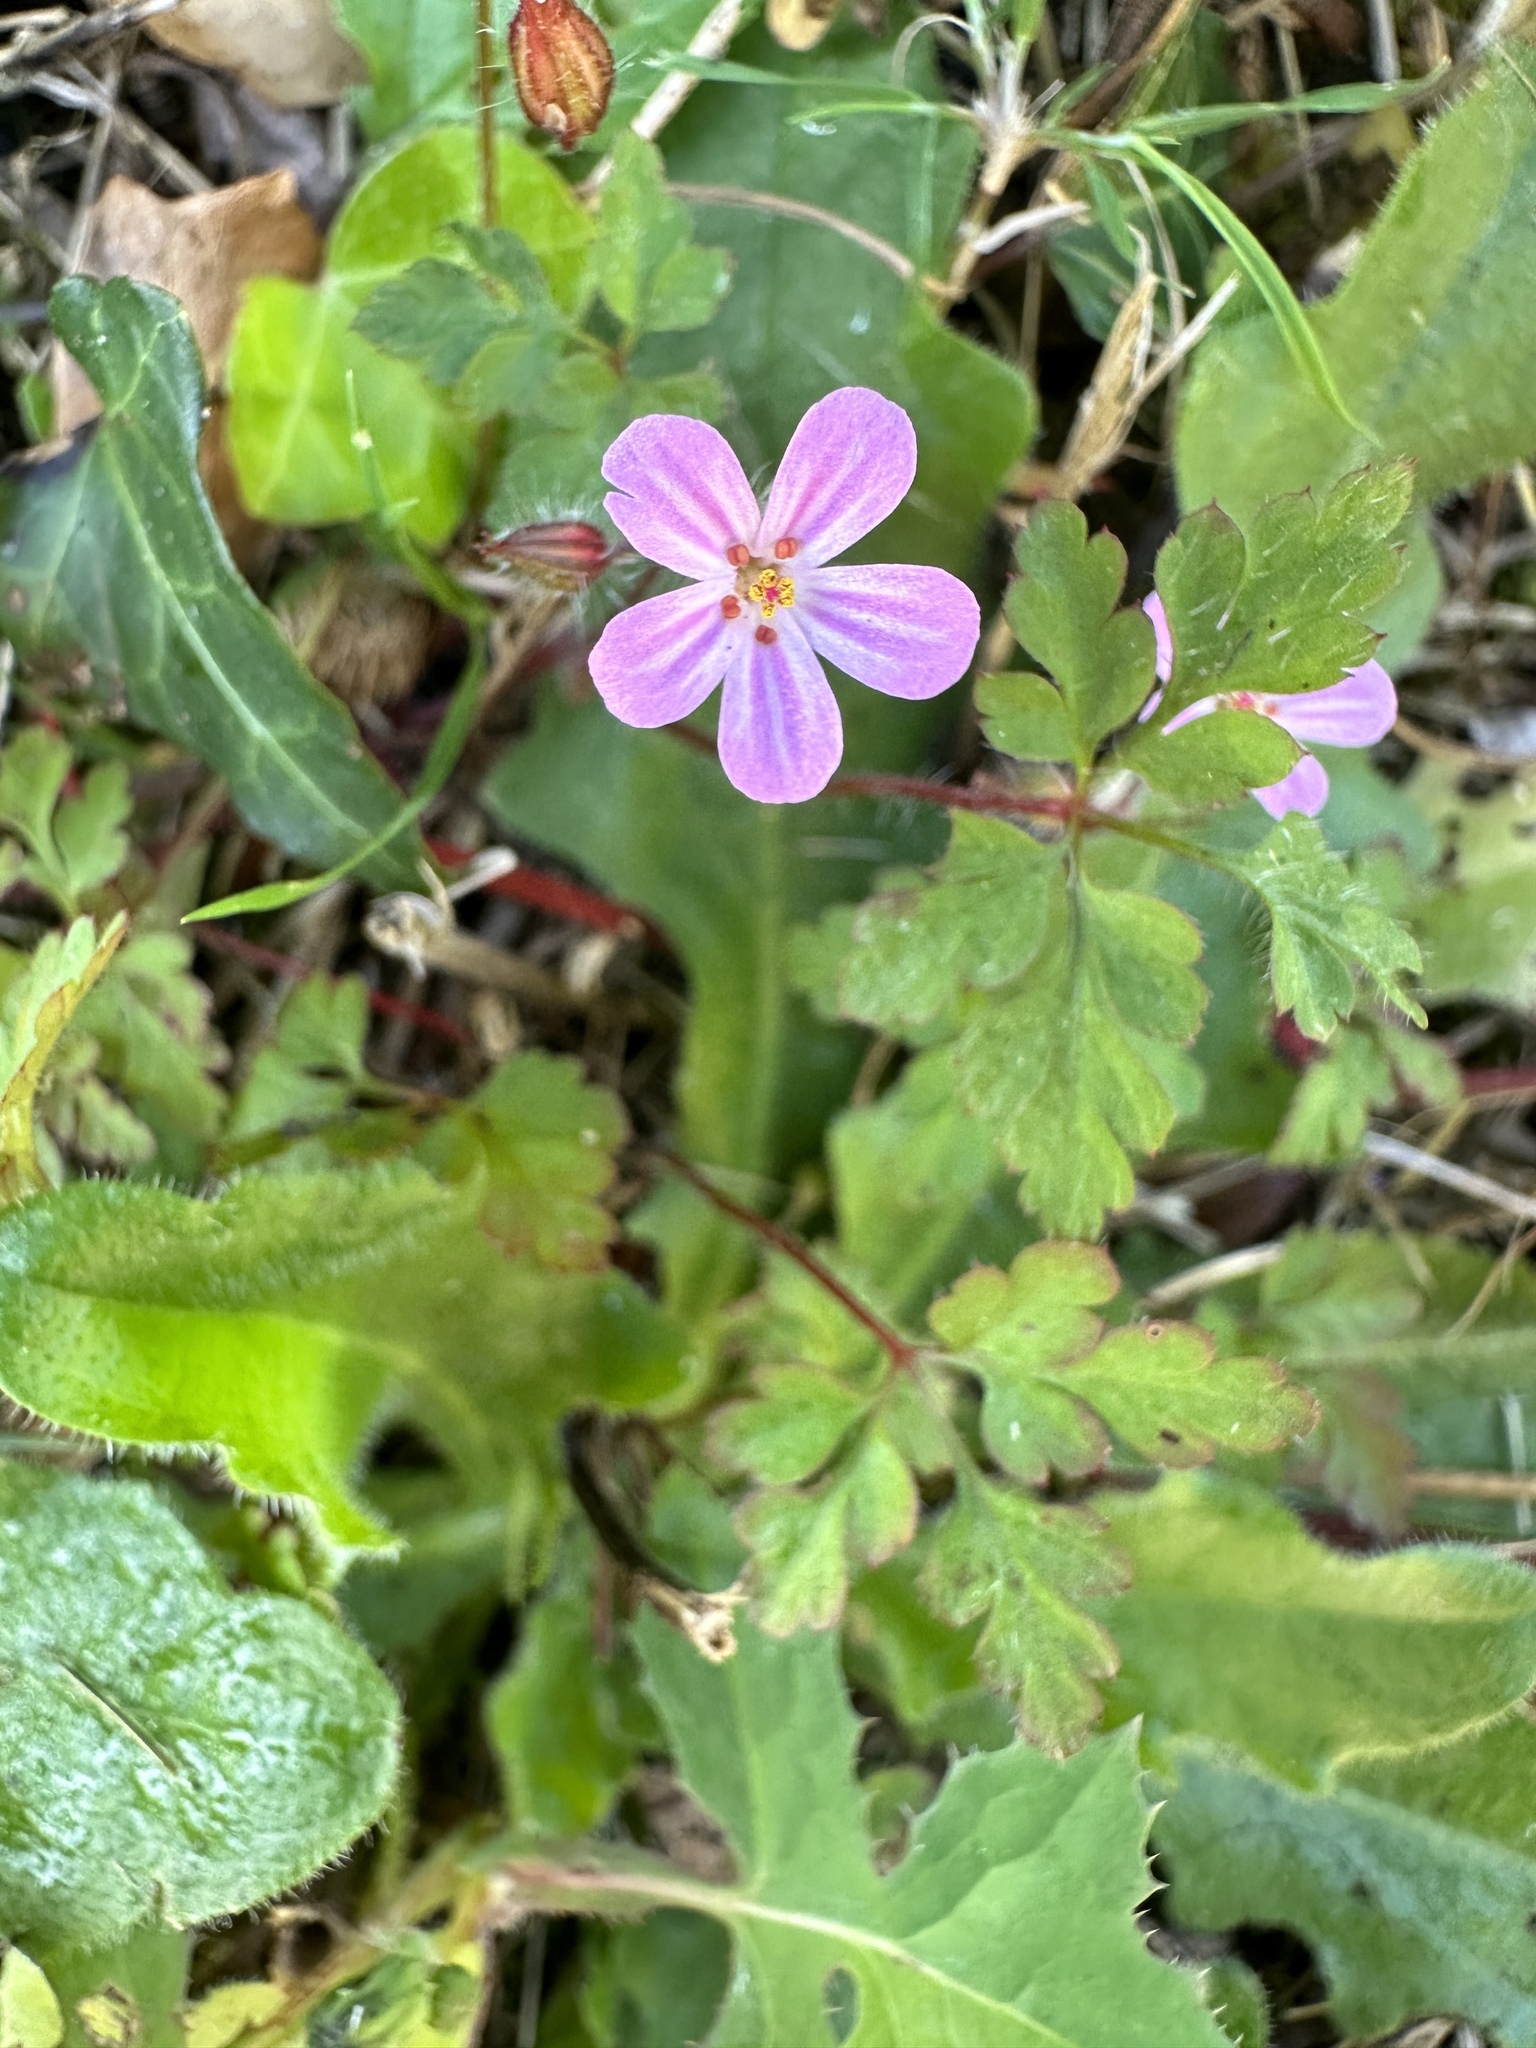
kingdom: Plantae
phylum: Tracheophyta
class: Magnoliopsida
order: Geraniales
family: Geraniaceae
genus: Geranium
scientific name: Geranium robertianum
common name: Herb-robert
